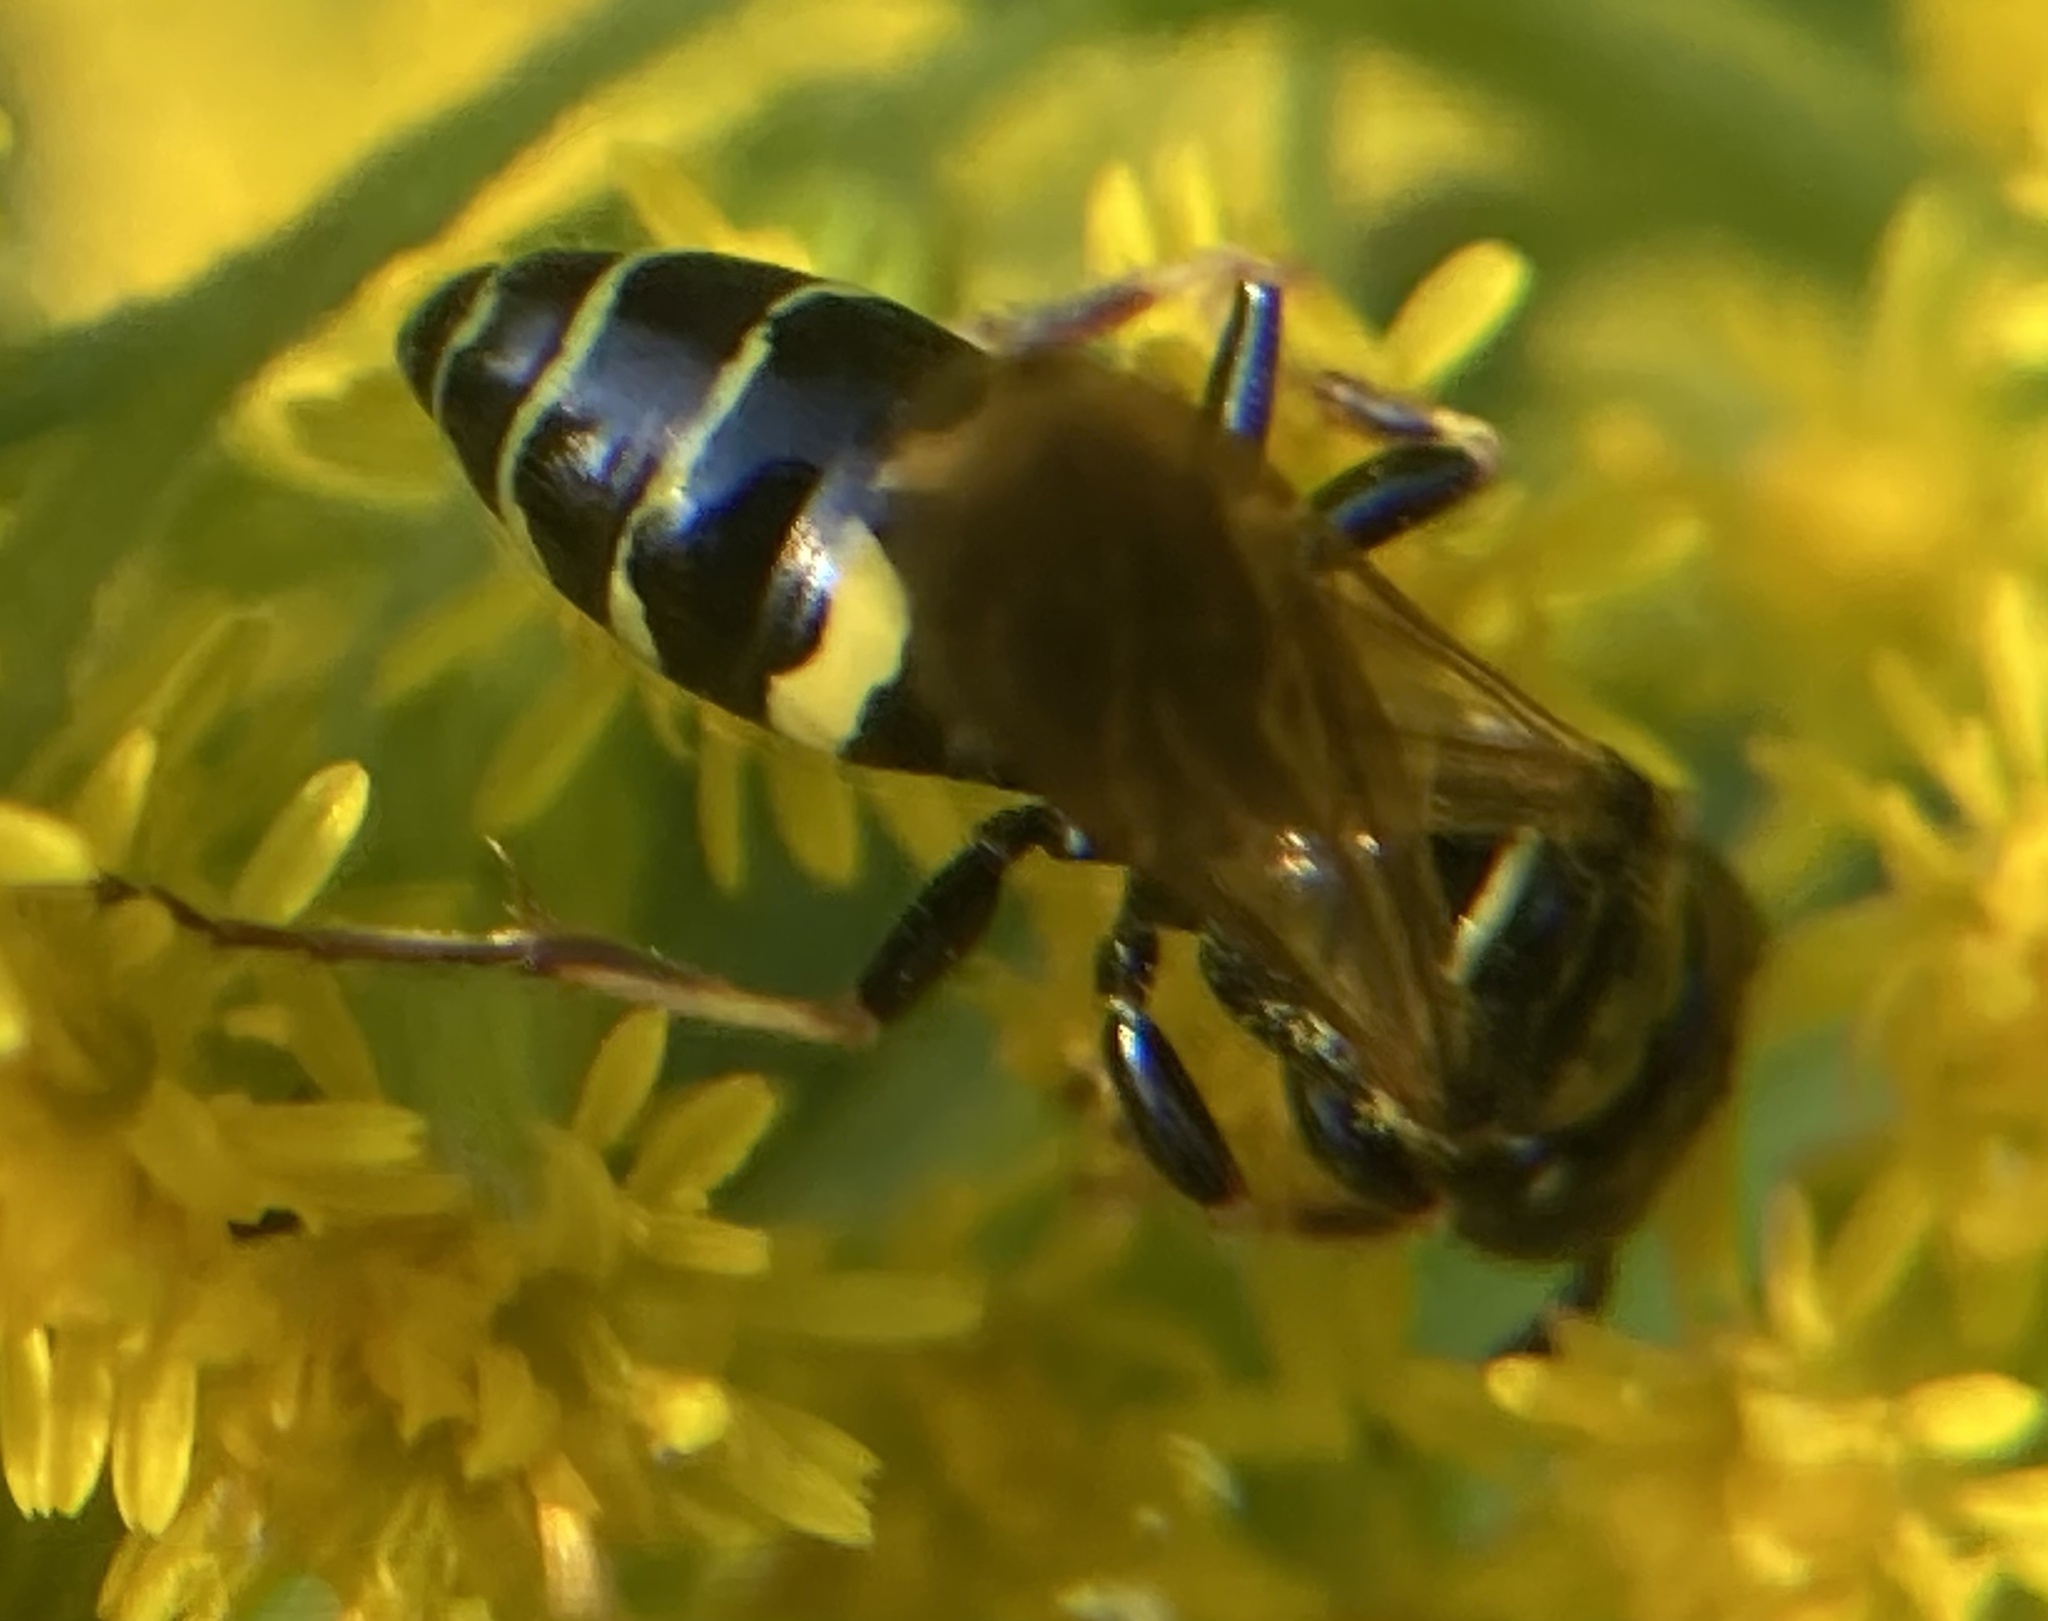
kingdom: Animalia
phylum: Arthropoda
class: Insecta
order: Hymenoptera
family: Crabronidae
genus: Philanthus
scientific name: Philanthus bilunatus
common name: Two moons beewolf
